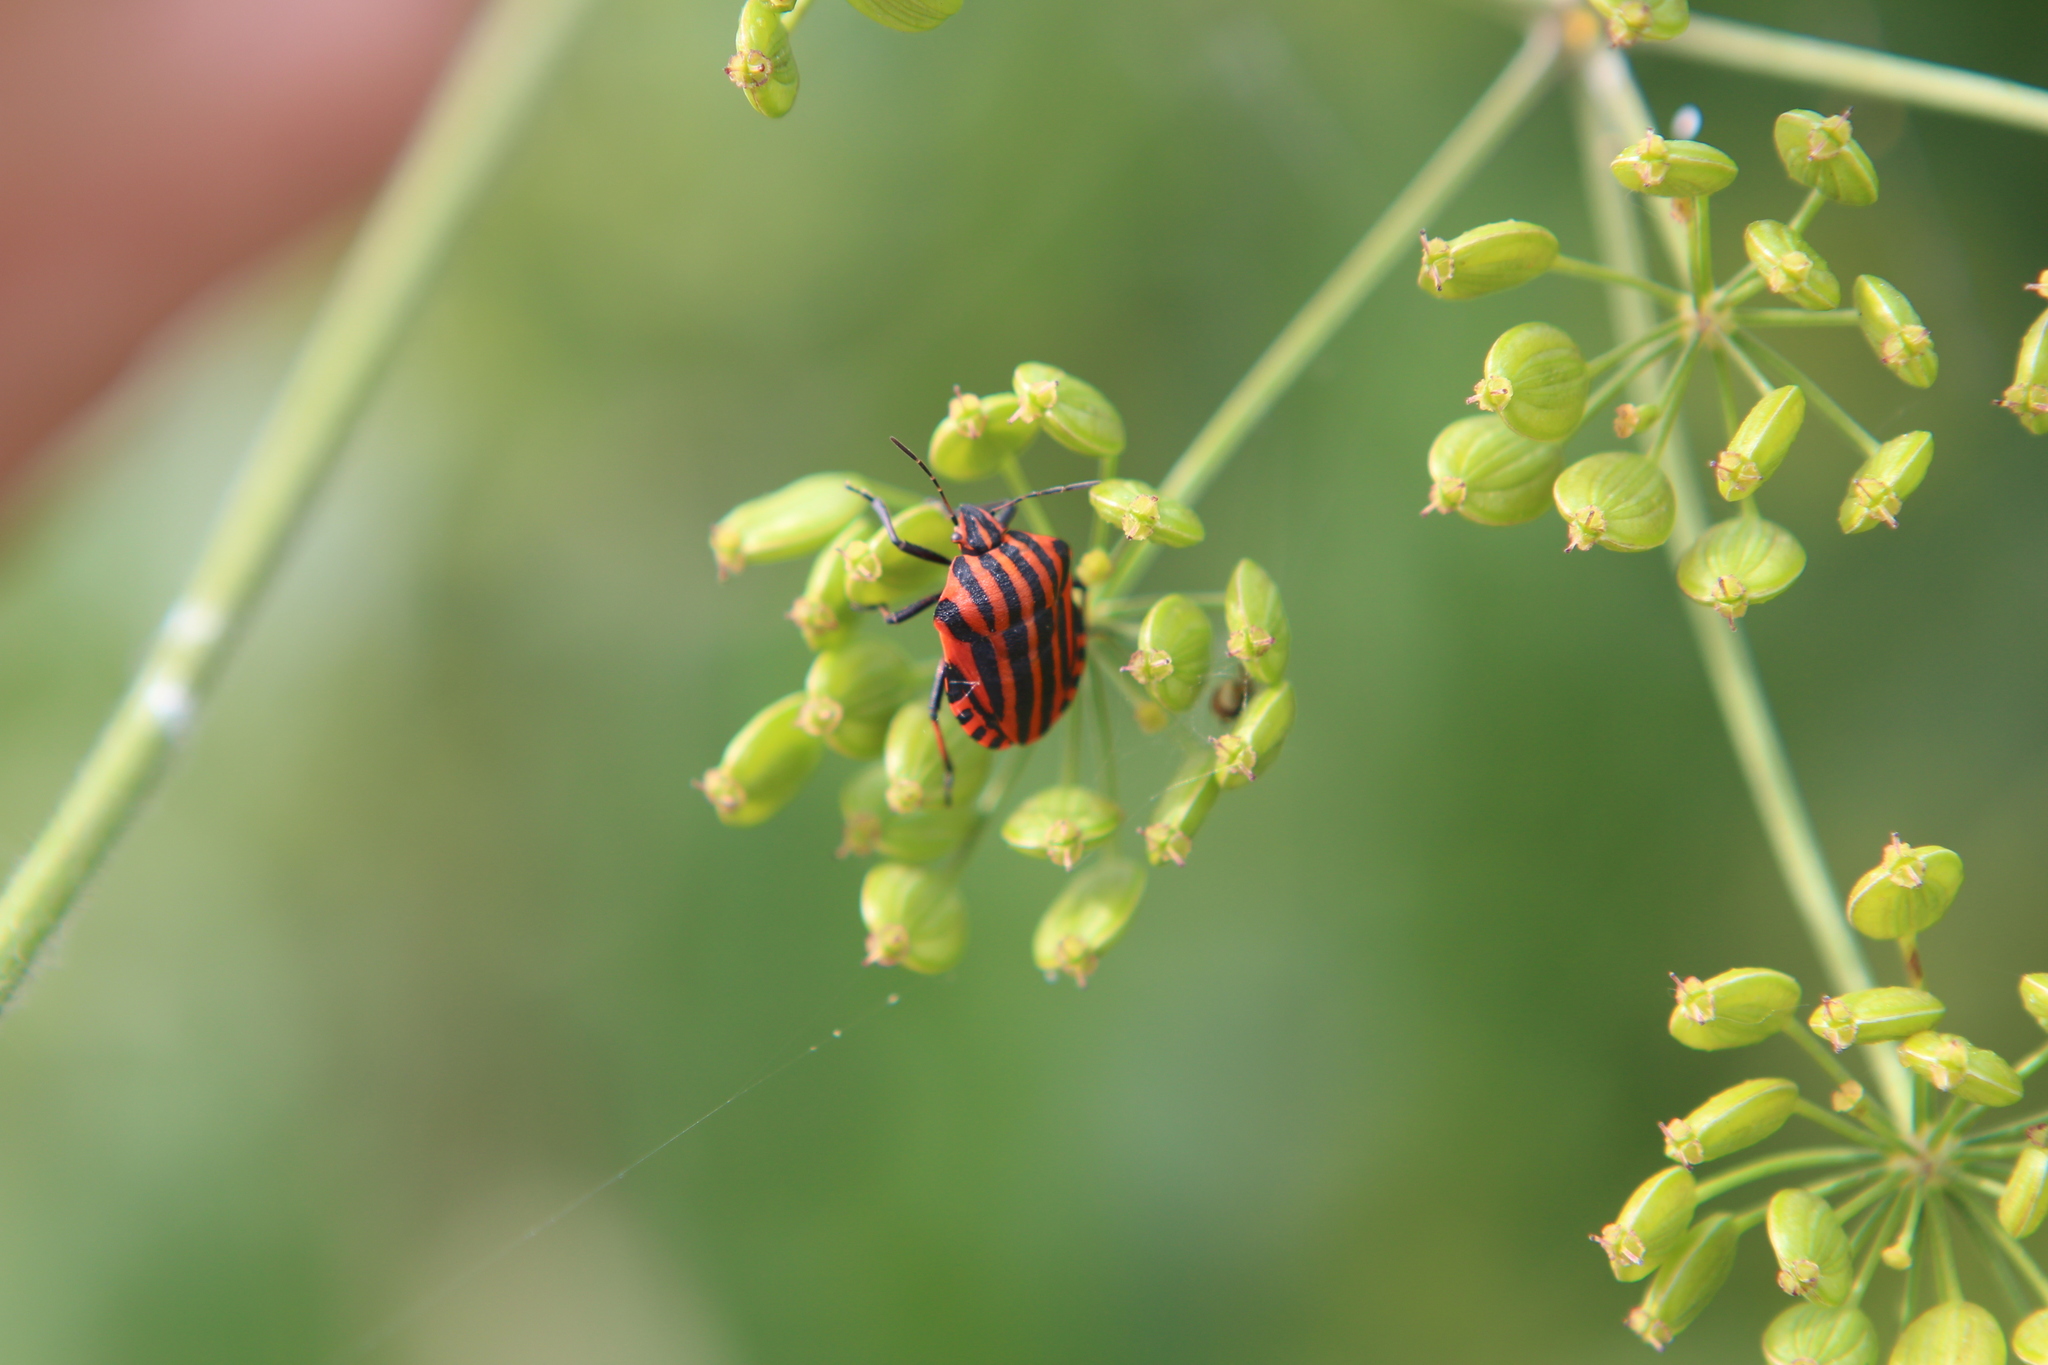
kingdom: Animalia
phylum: Arthropoda
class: Insecta
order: Hemiptera
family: Pentatomidae
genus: Graphosoma
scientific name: Graphosoma italicum
